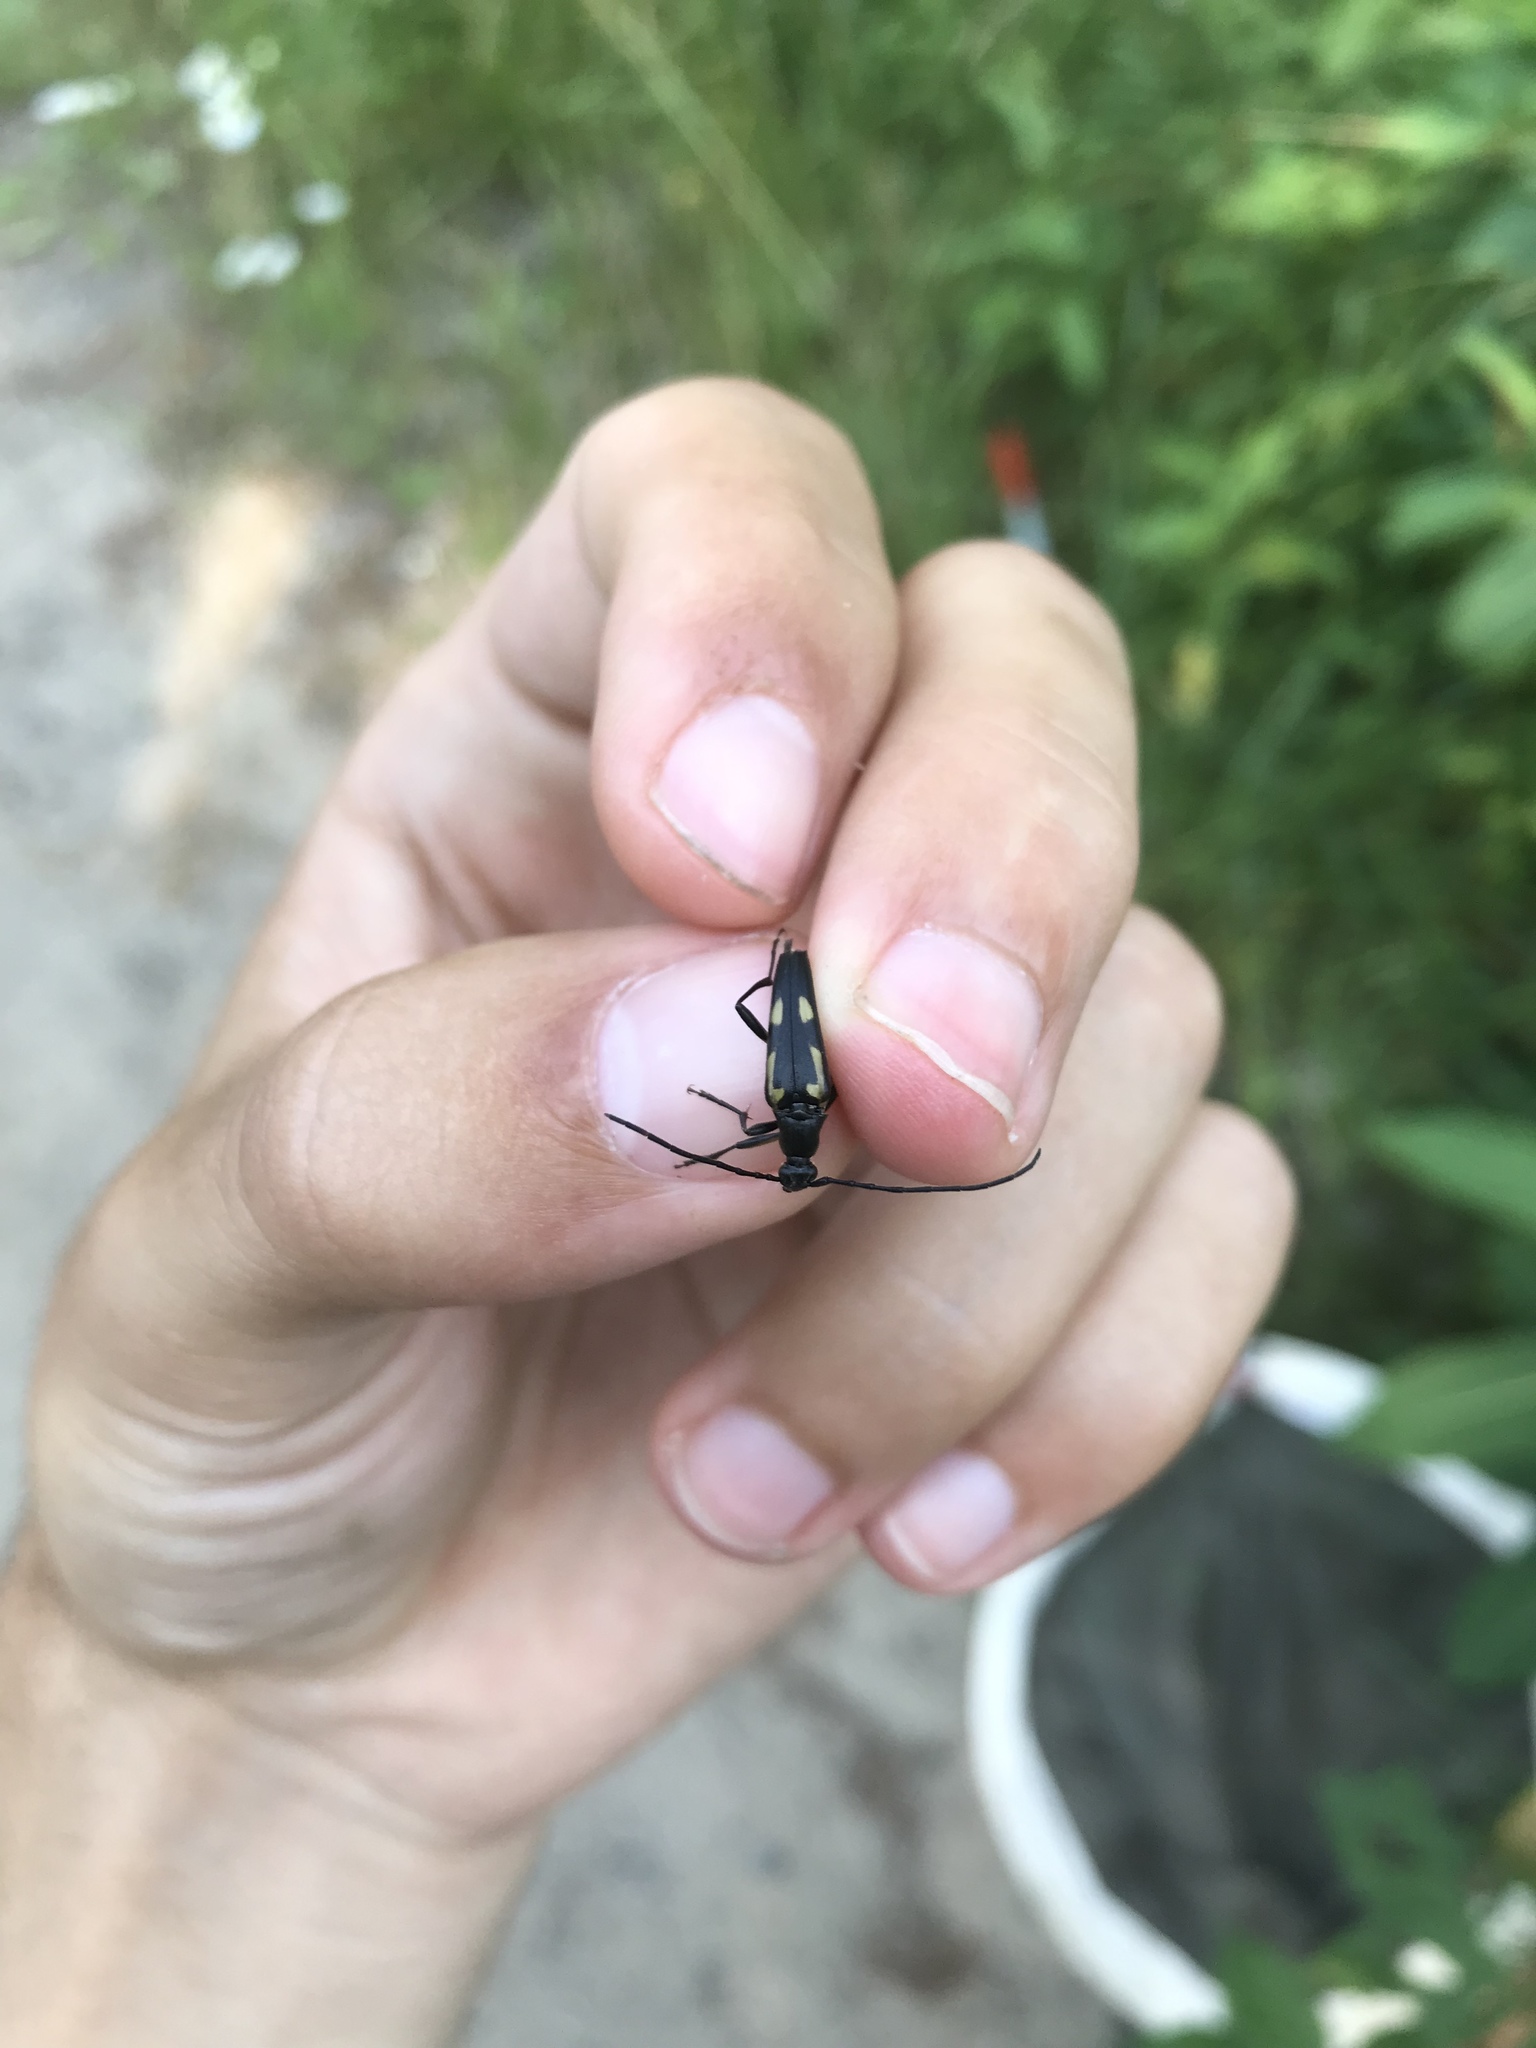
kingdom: Animalia
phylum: Arthropoda
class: Insecta
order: Coleoptera
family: Cerambycidae
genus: Etorofus
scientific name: Etorofus
